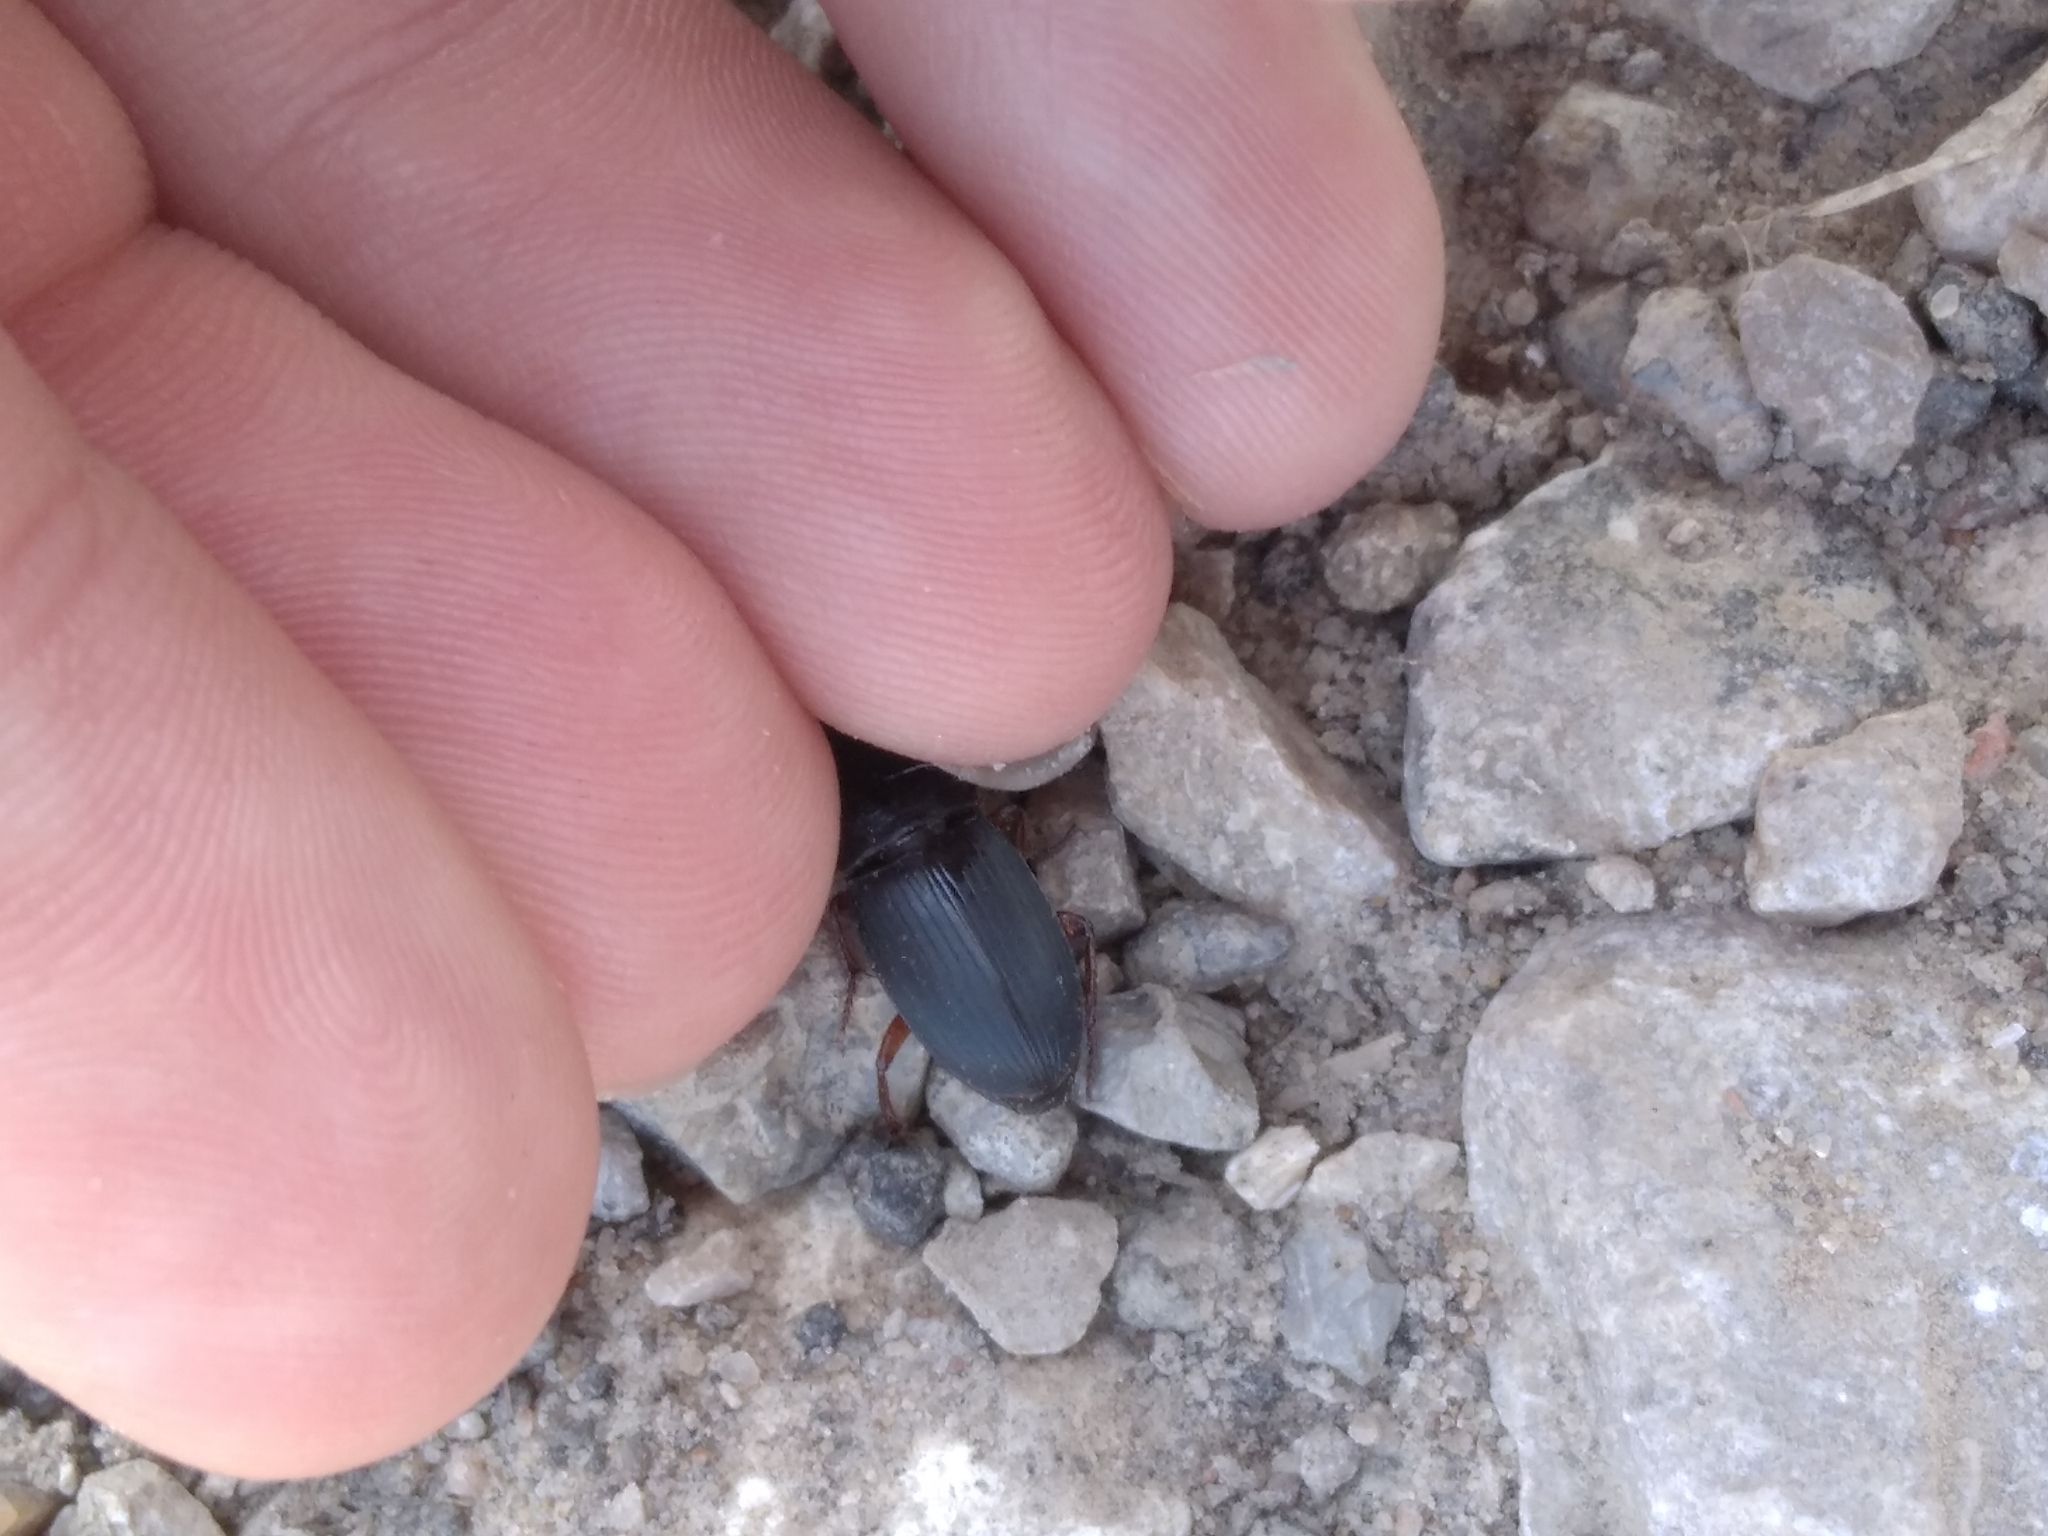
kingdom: Animalia
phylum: Arthropoda
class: Insecta
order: Coleoptera
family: Carabidae
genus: Harpalus
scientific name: Harpalus
